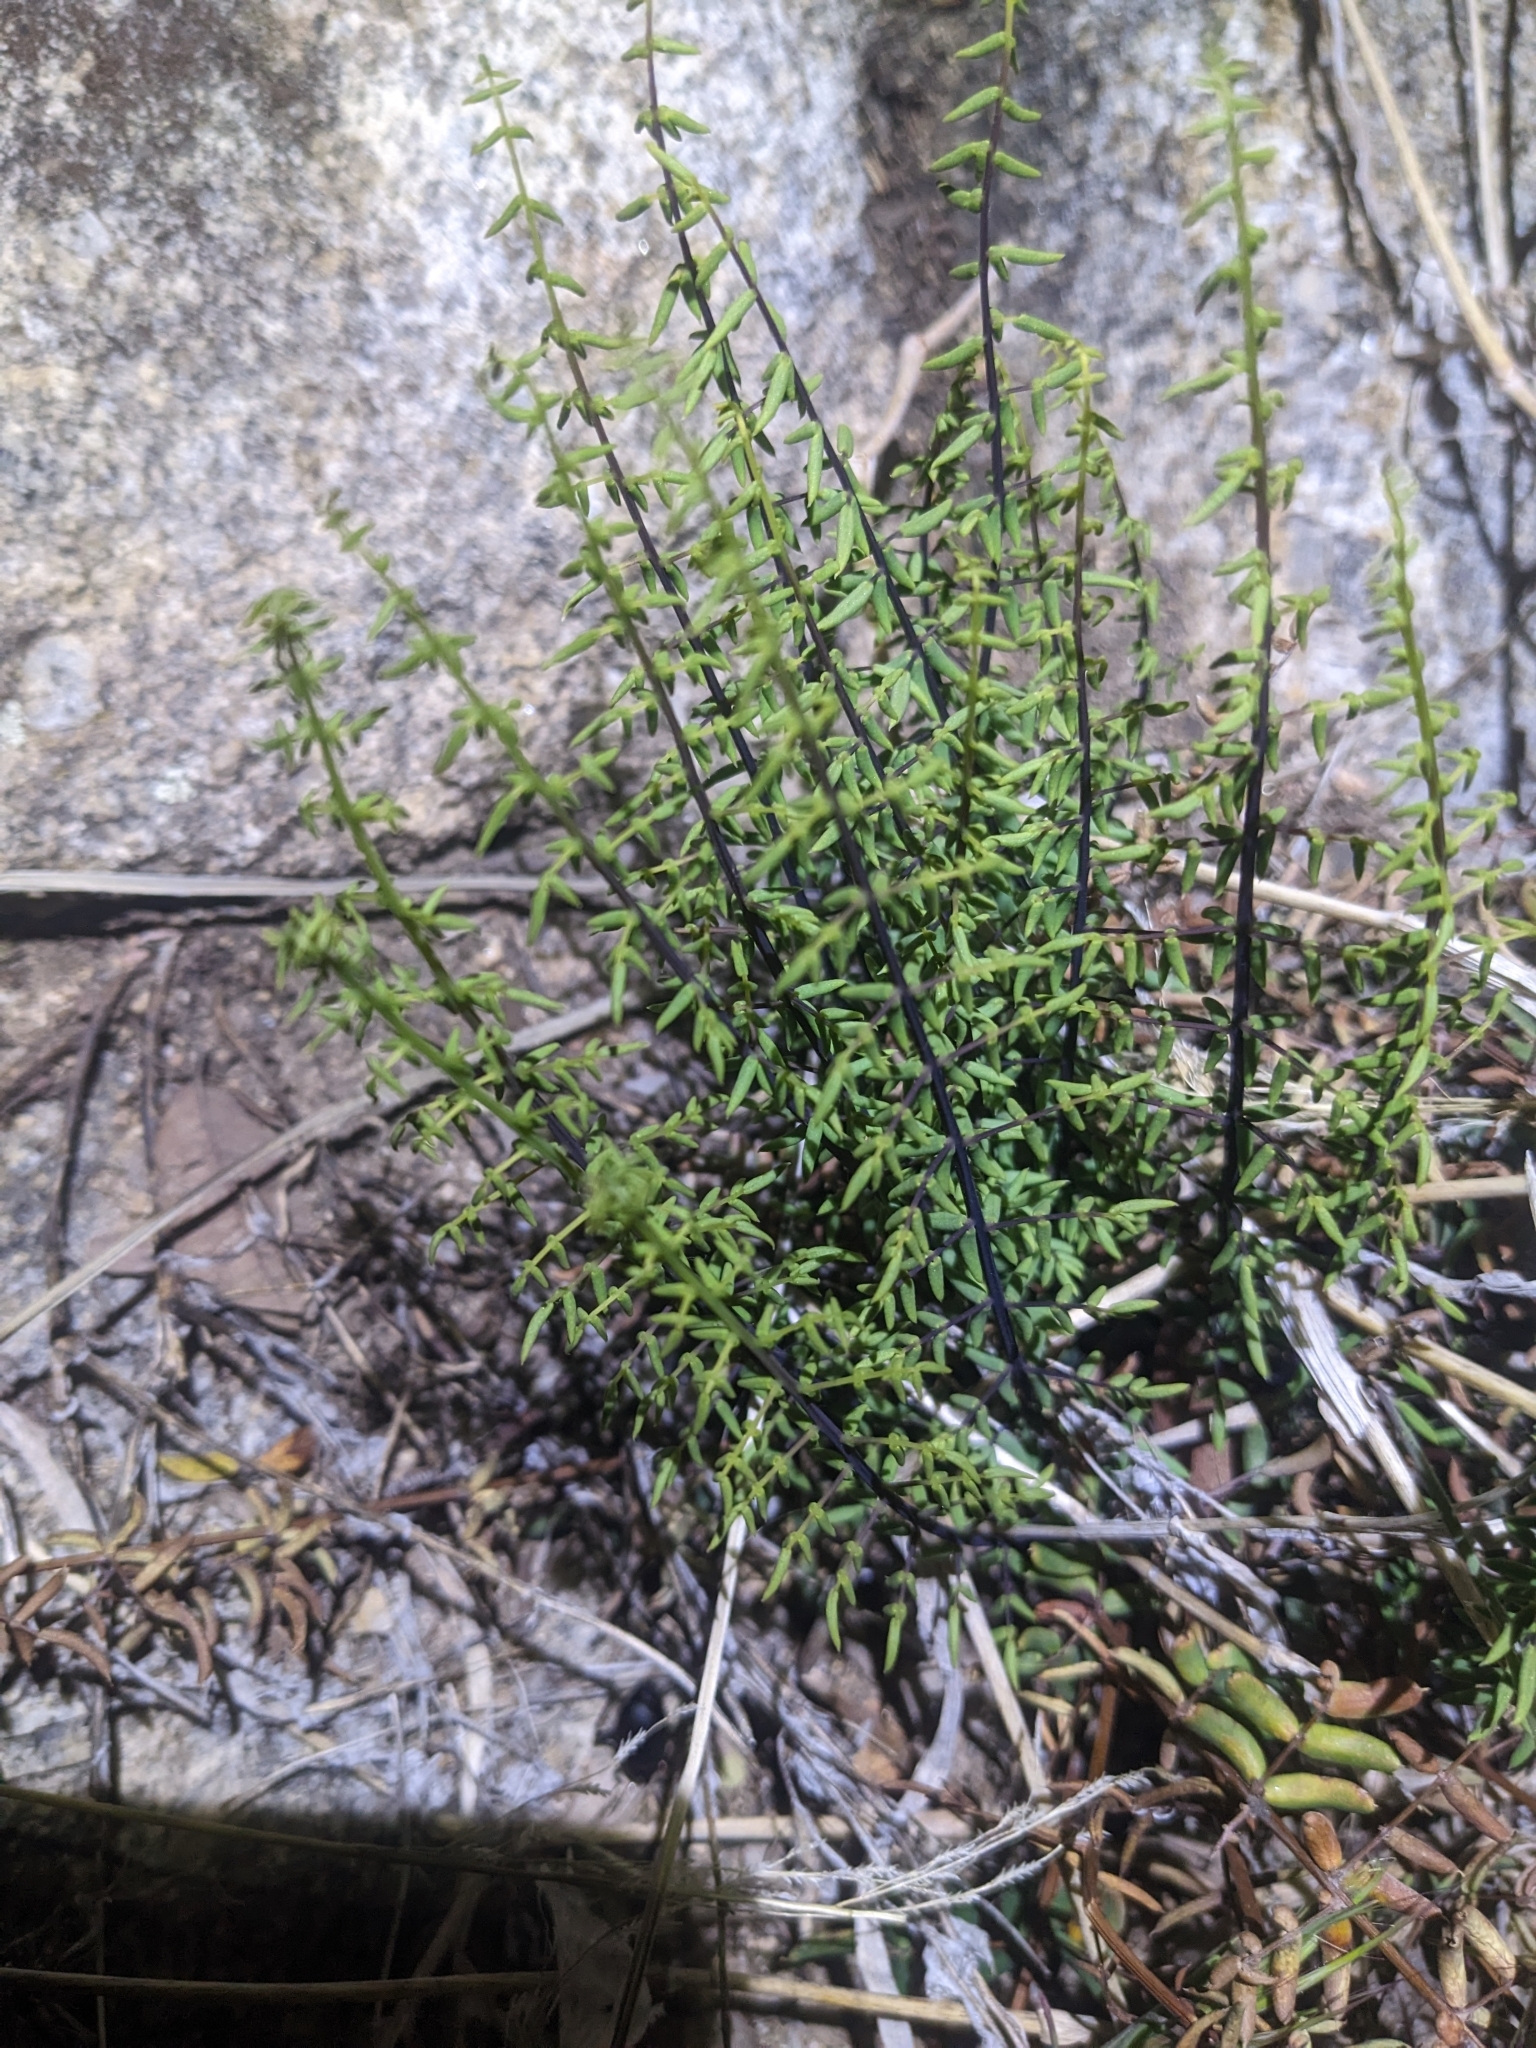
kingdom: Plantae
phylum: Tracheophyta
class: Polypodiopsida
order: Polypodiales
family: Pteridaceae
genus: Pellaea
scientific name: Pellaea truncata
